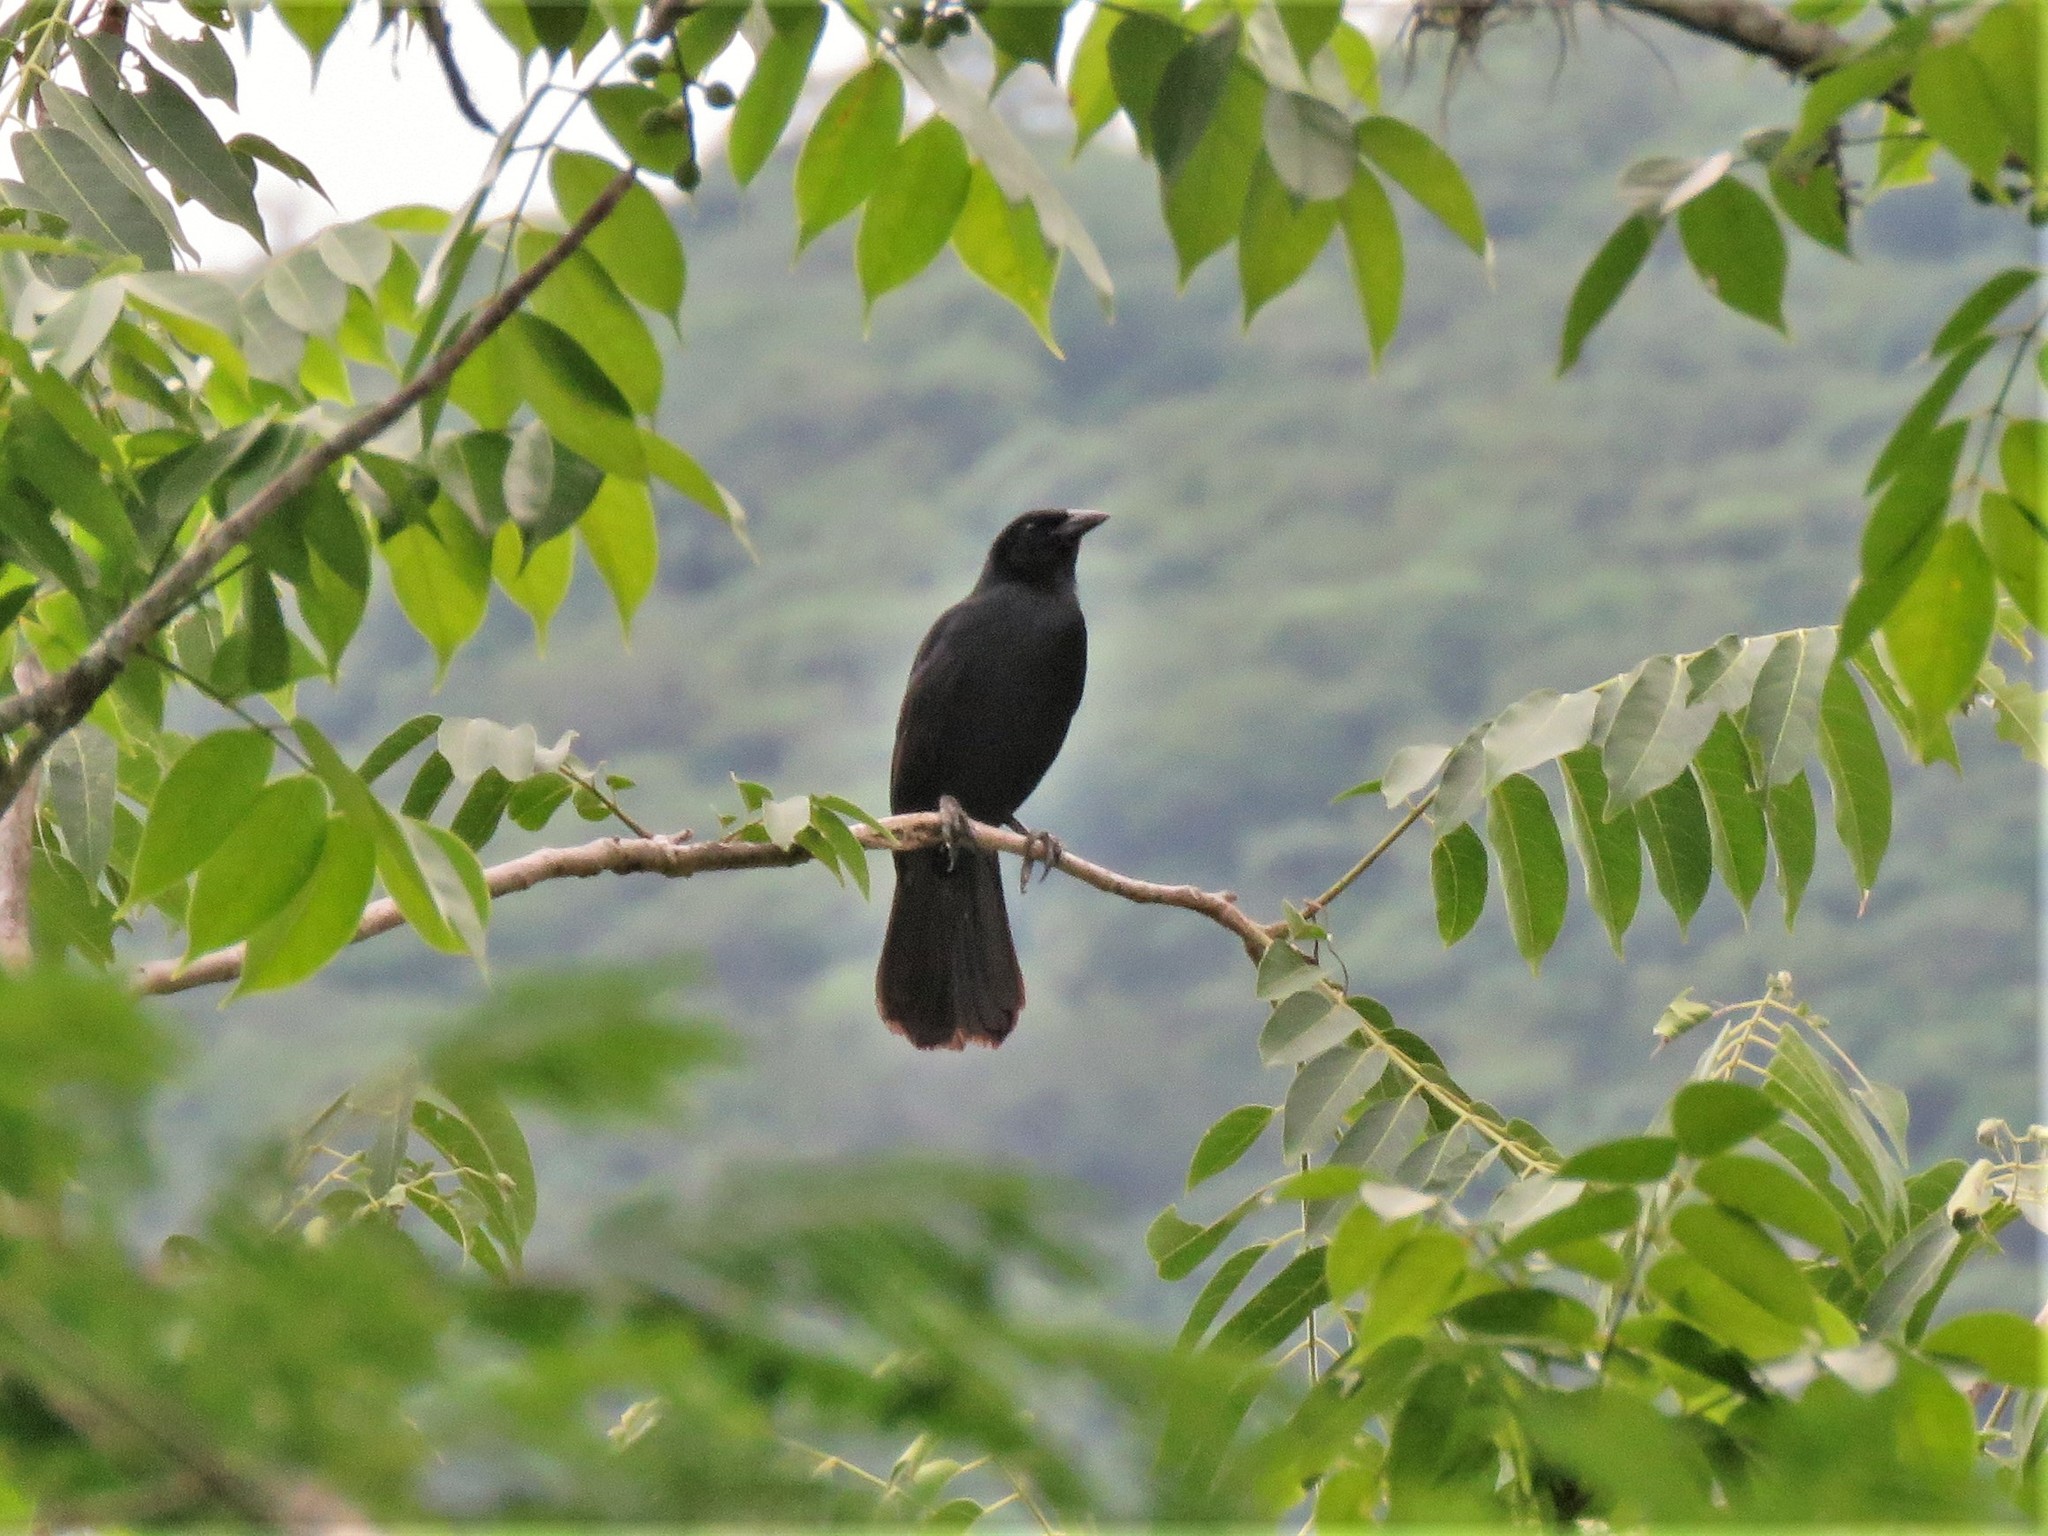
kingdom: Animalia
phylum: Chordata
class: Aves
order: Passeriformes
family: Icteridae
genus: Dives
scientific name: Dives dives
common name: Melodious blackbird
